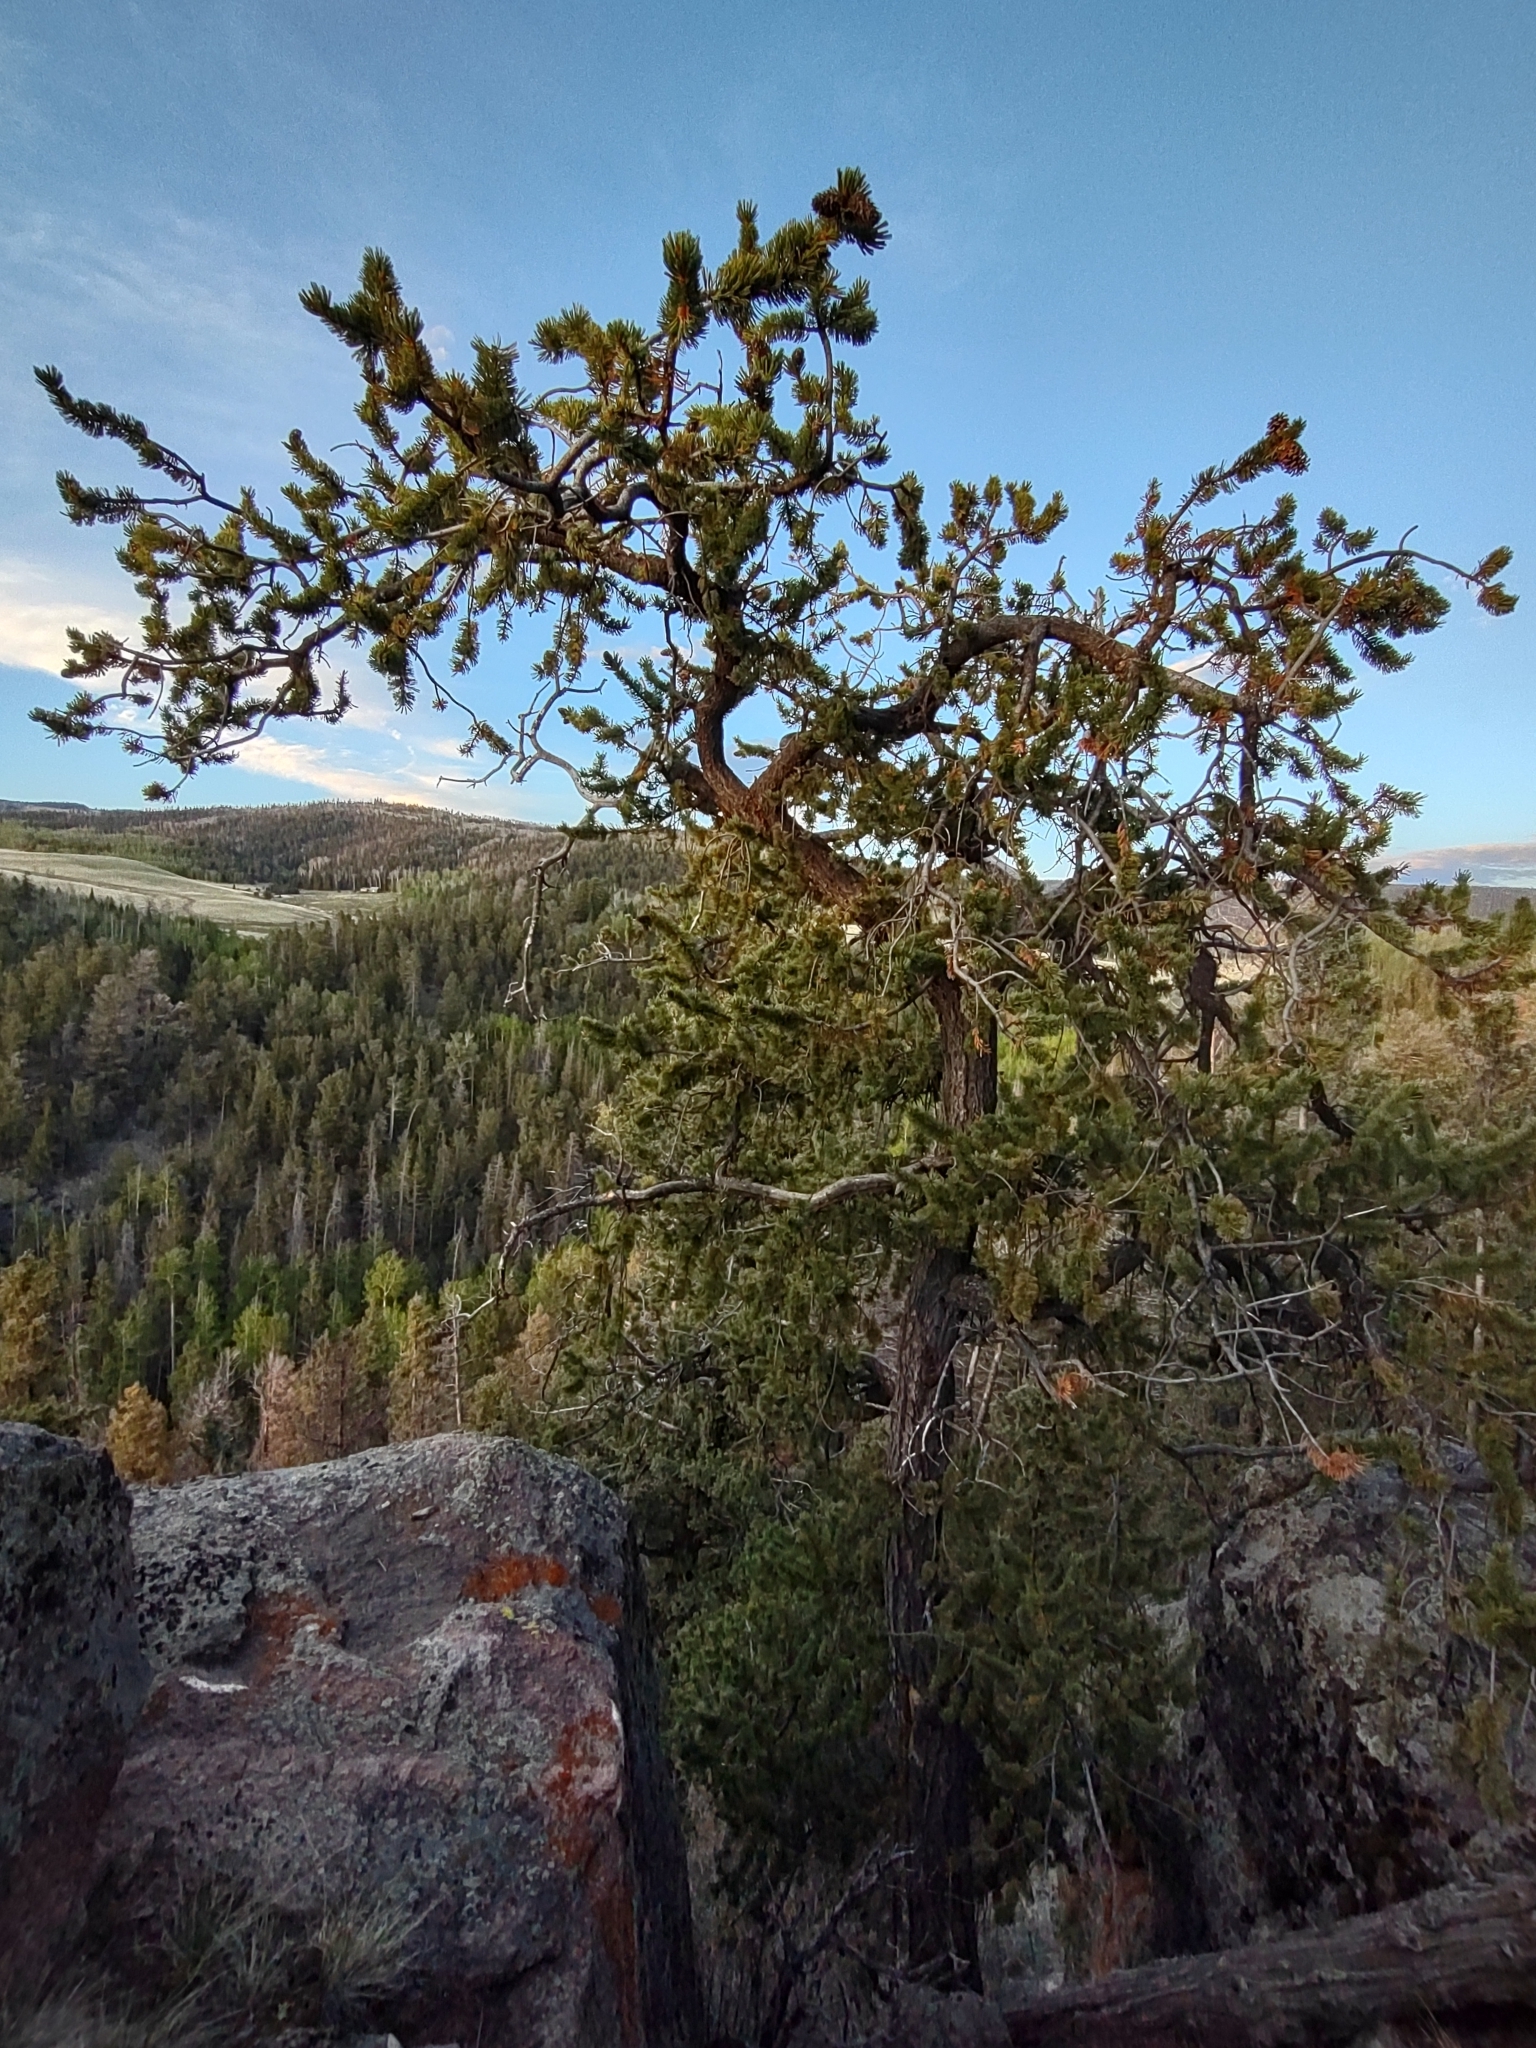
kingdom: Plantae
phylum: Tracheophyta
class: Pinopsida
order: Pinales
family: Pinaceae
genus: Pinus
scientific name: Pinus aristata
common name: Colorado bristlecone pine
